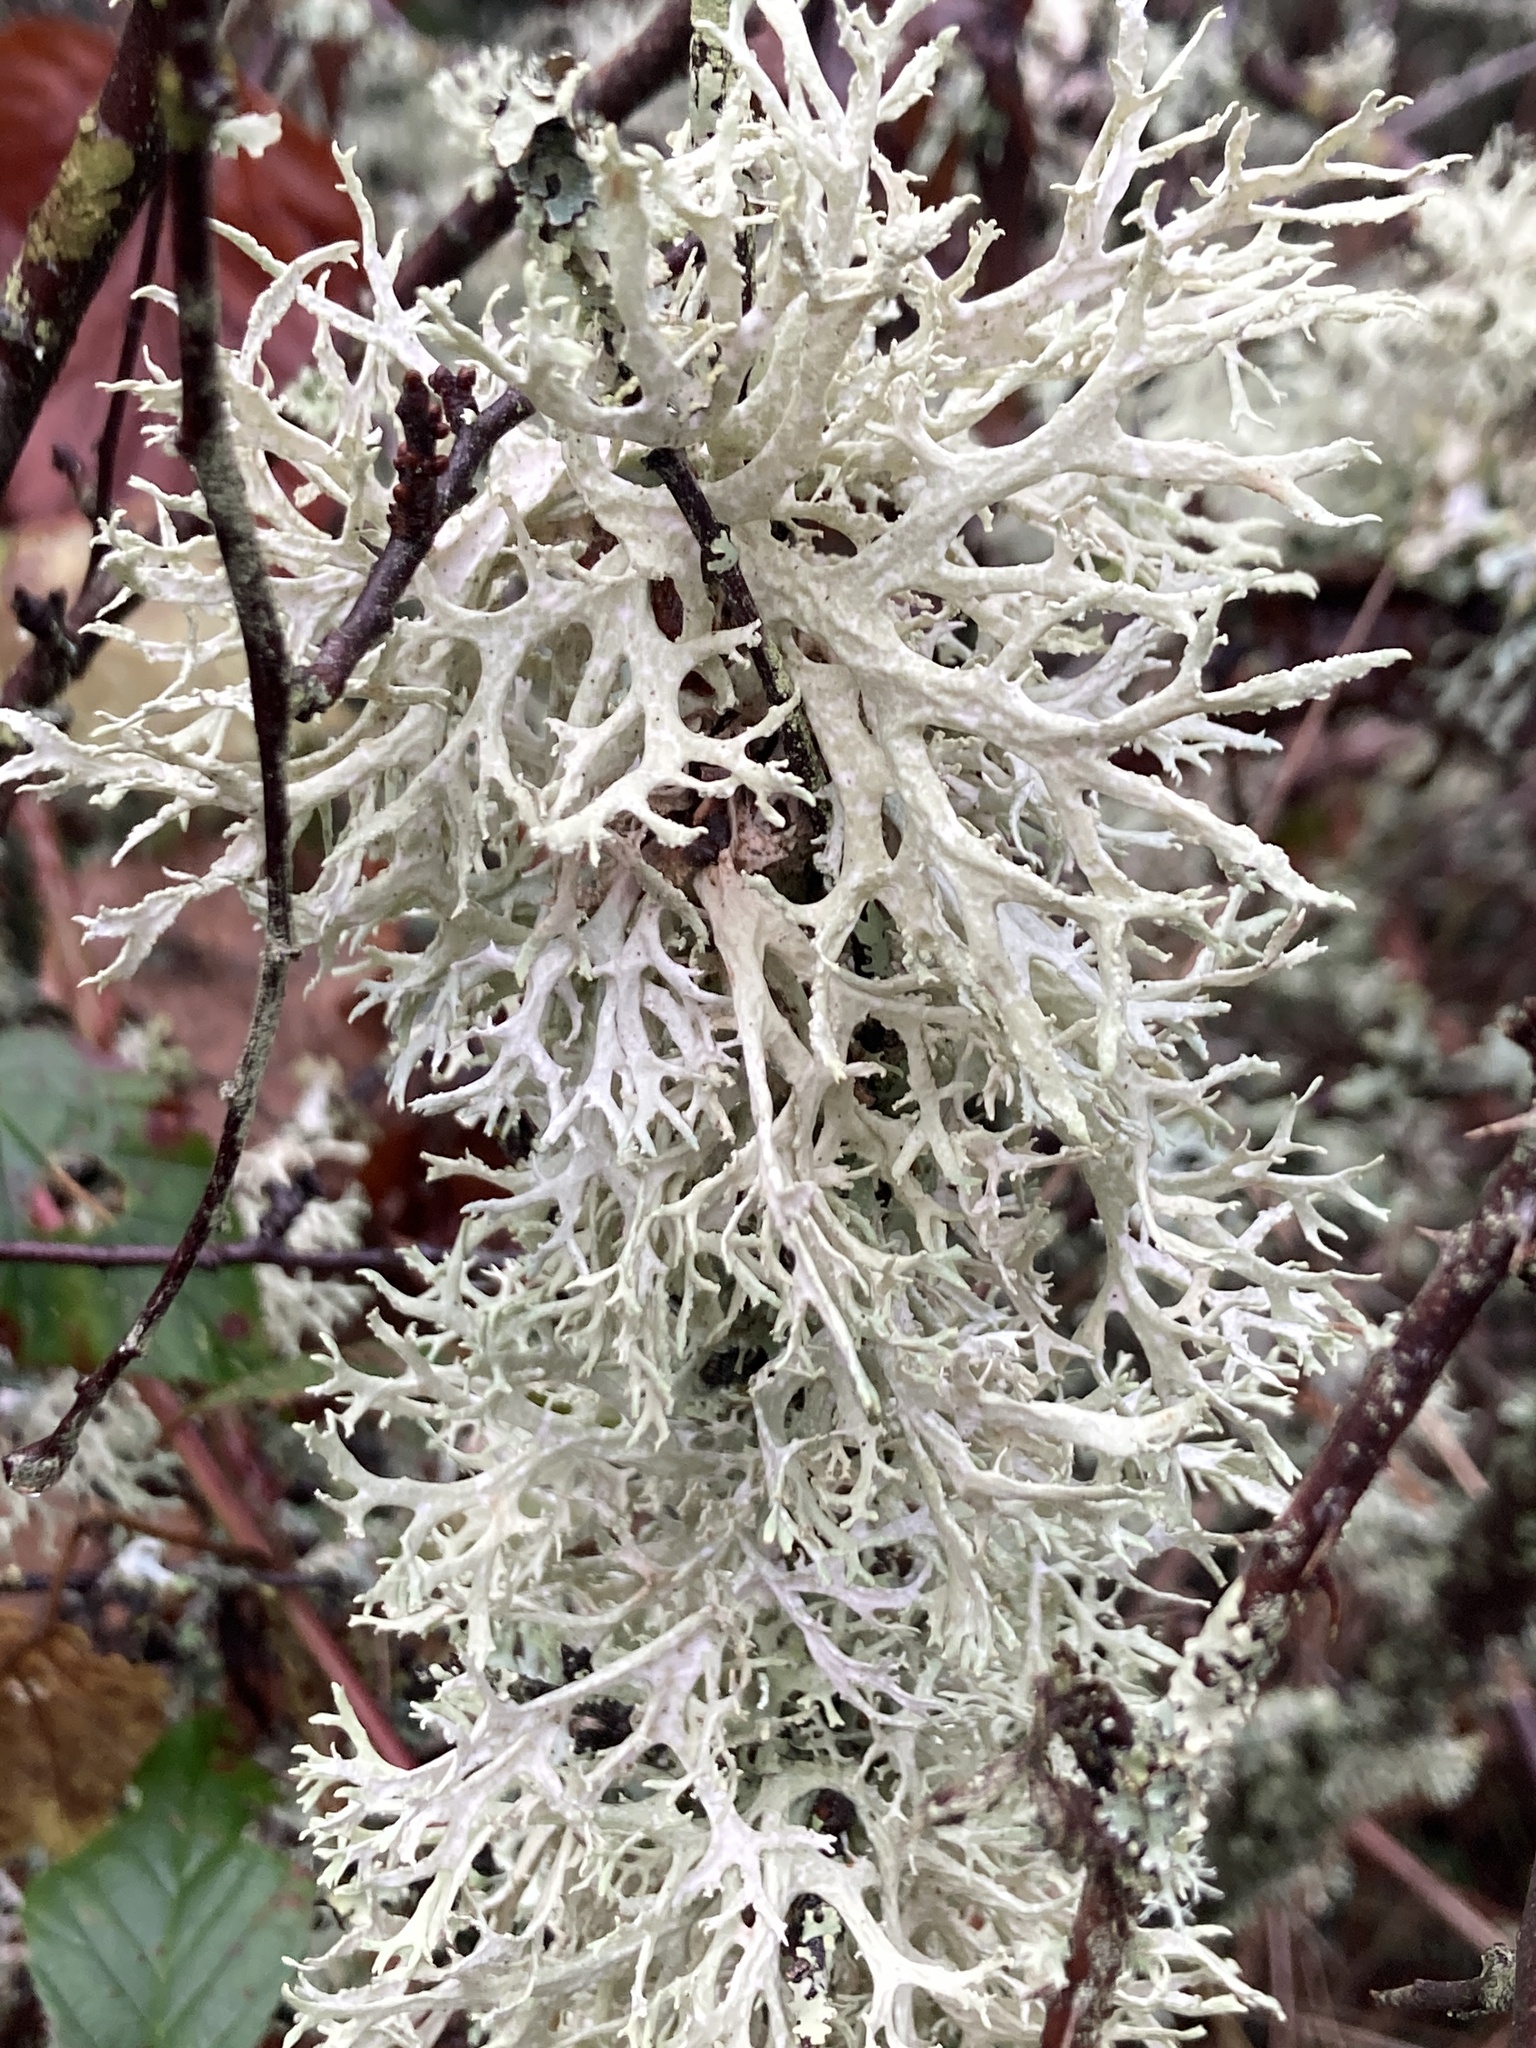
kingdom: Fungi
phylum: Ascomycota
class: Lecanoromycetes
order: Lecanorales
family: Parmeliaceae
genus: Evernia
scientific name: Evernia prunastri
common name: Oak moss
